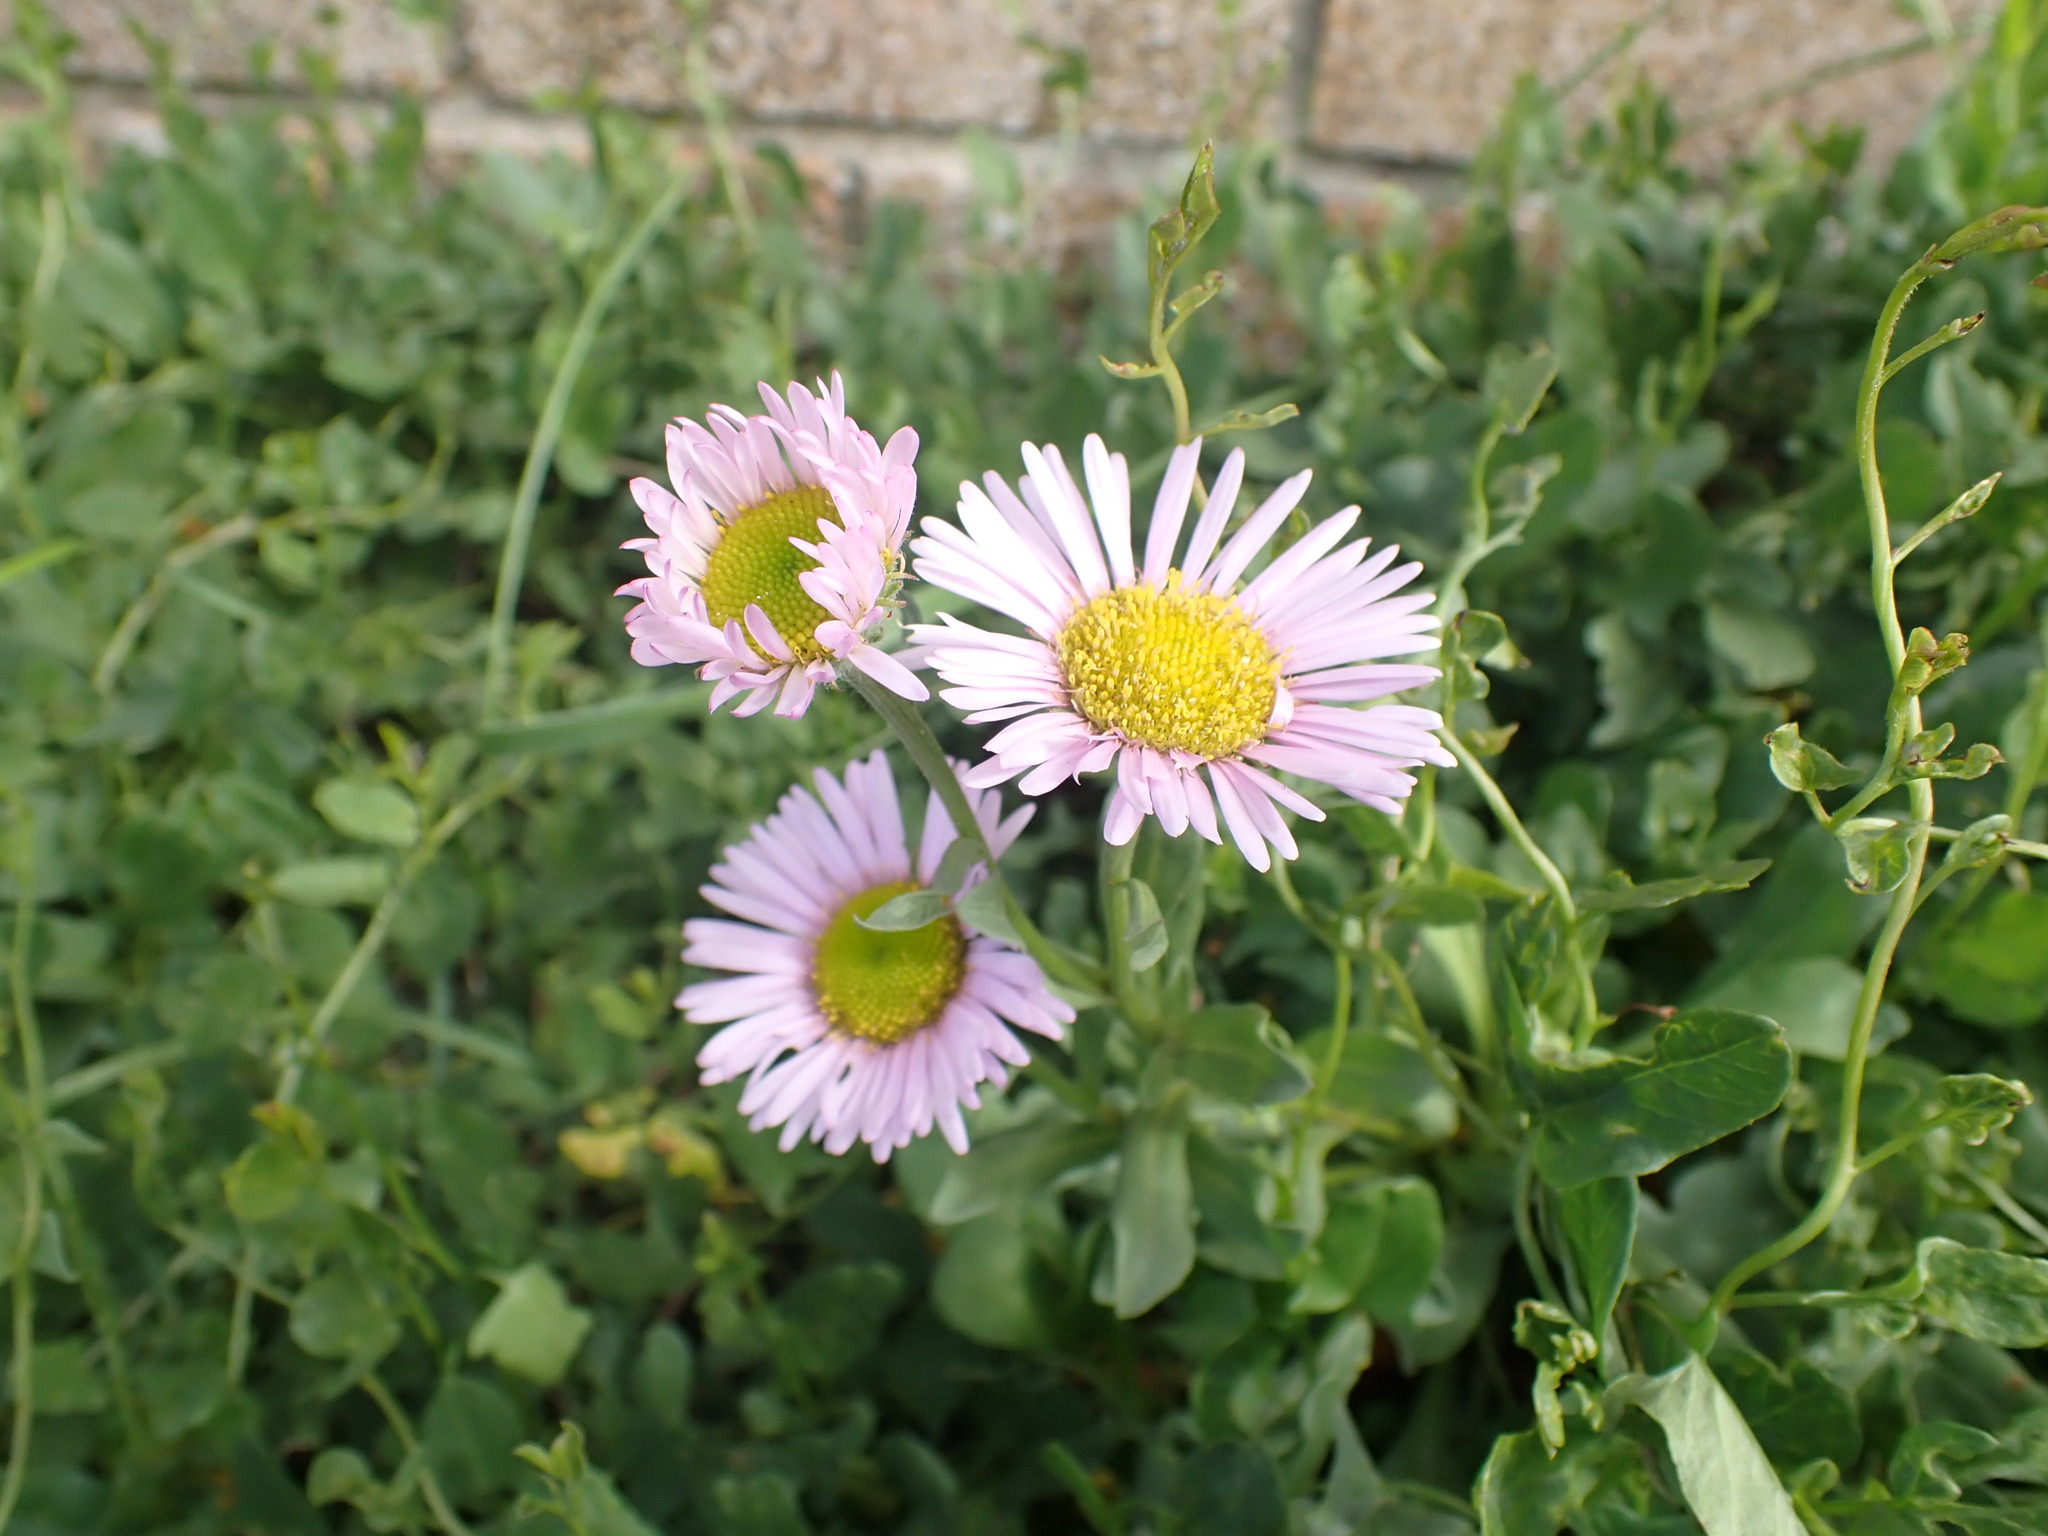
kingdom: Plantae
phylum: Tracheophyta
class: Magnoliopsida
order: Asterales
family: Asteraceae
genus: Erigeron
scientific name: Erigeron glaucus
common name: Seaside daisy
